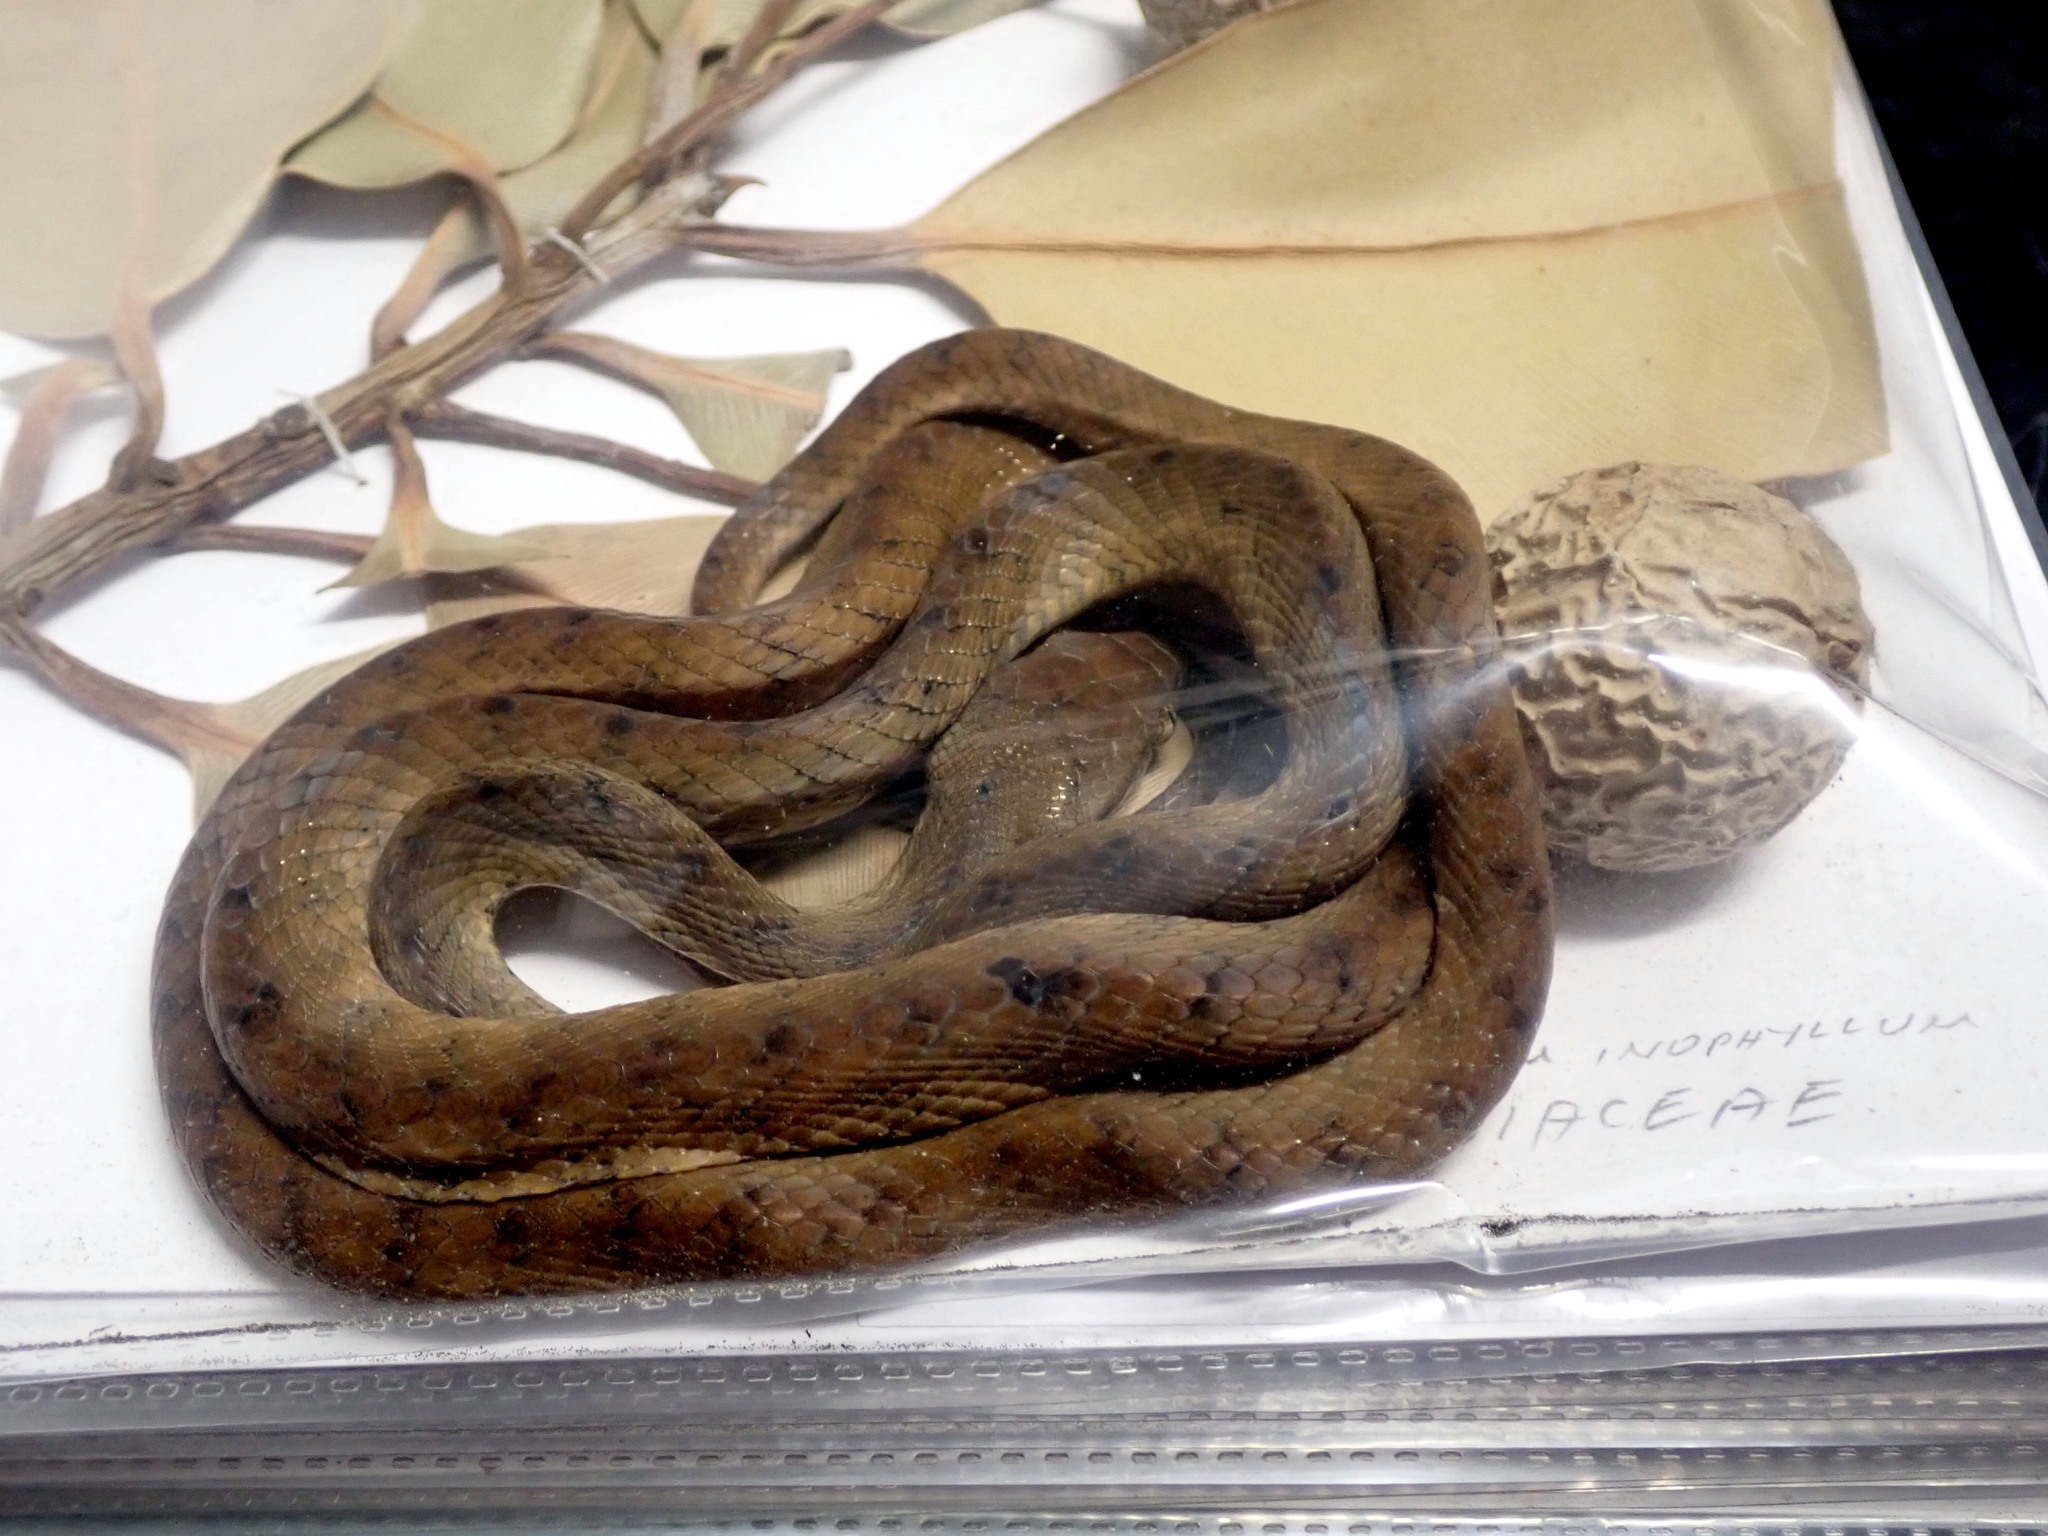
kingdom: Animalia
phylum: Chordata
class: Squamata
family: Colubridae
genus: Boiga
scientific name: Boiga irregularis
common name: Brown tree snake
